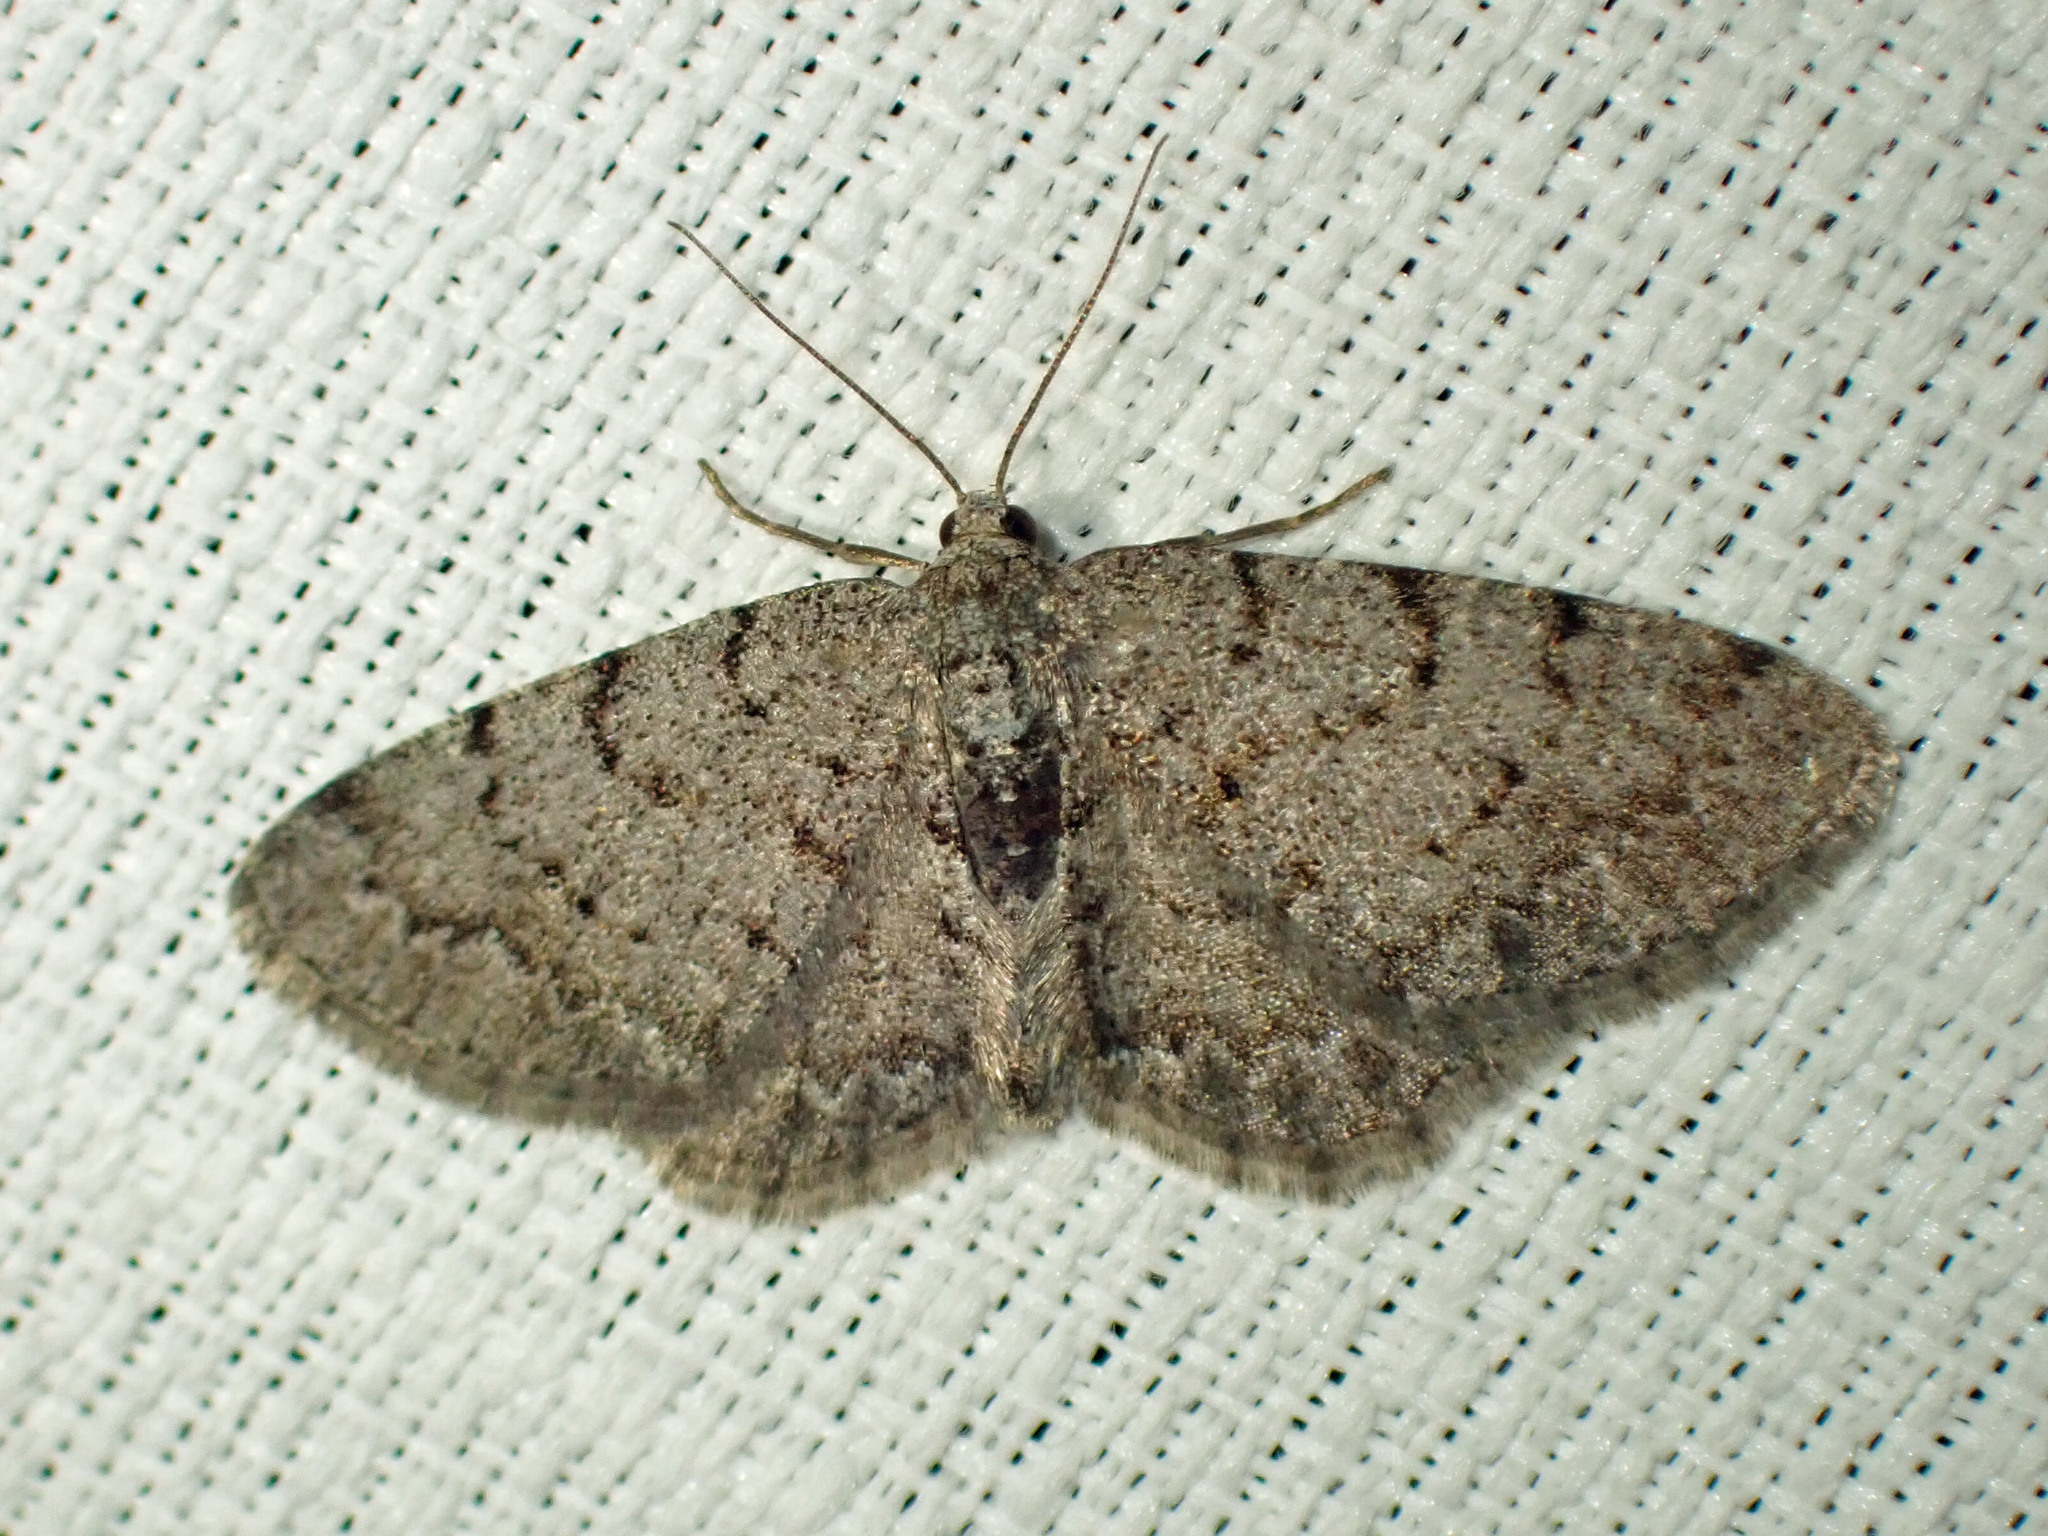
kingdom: Animalia
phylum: Arthropoda
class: Insecta
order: Lepidoptera
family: Geometridae
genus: Aethalura
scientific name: Aethalura intertexta
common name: Four-barred gray
